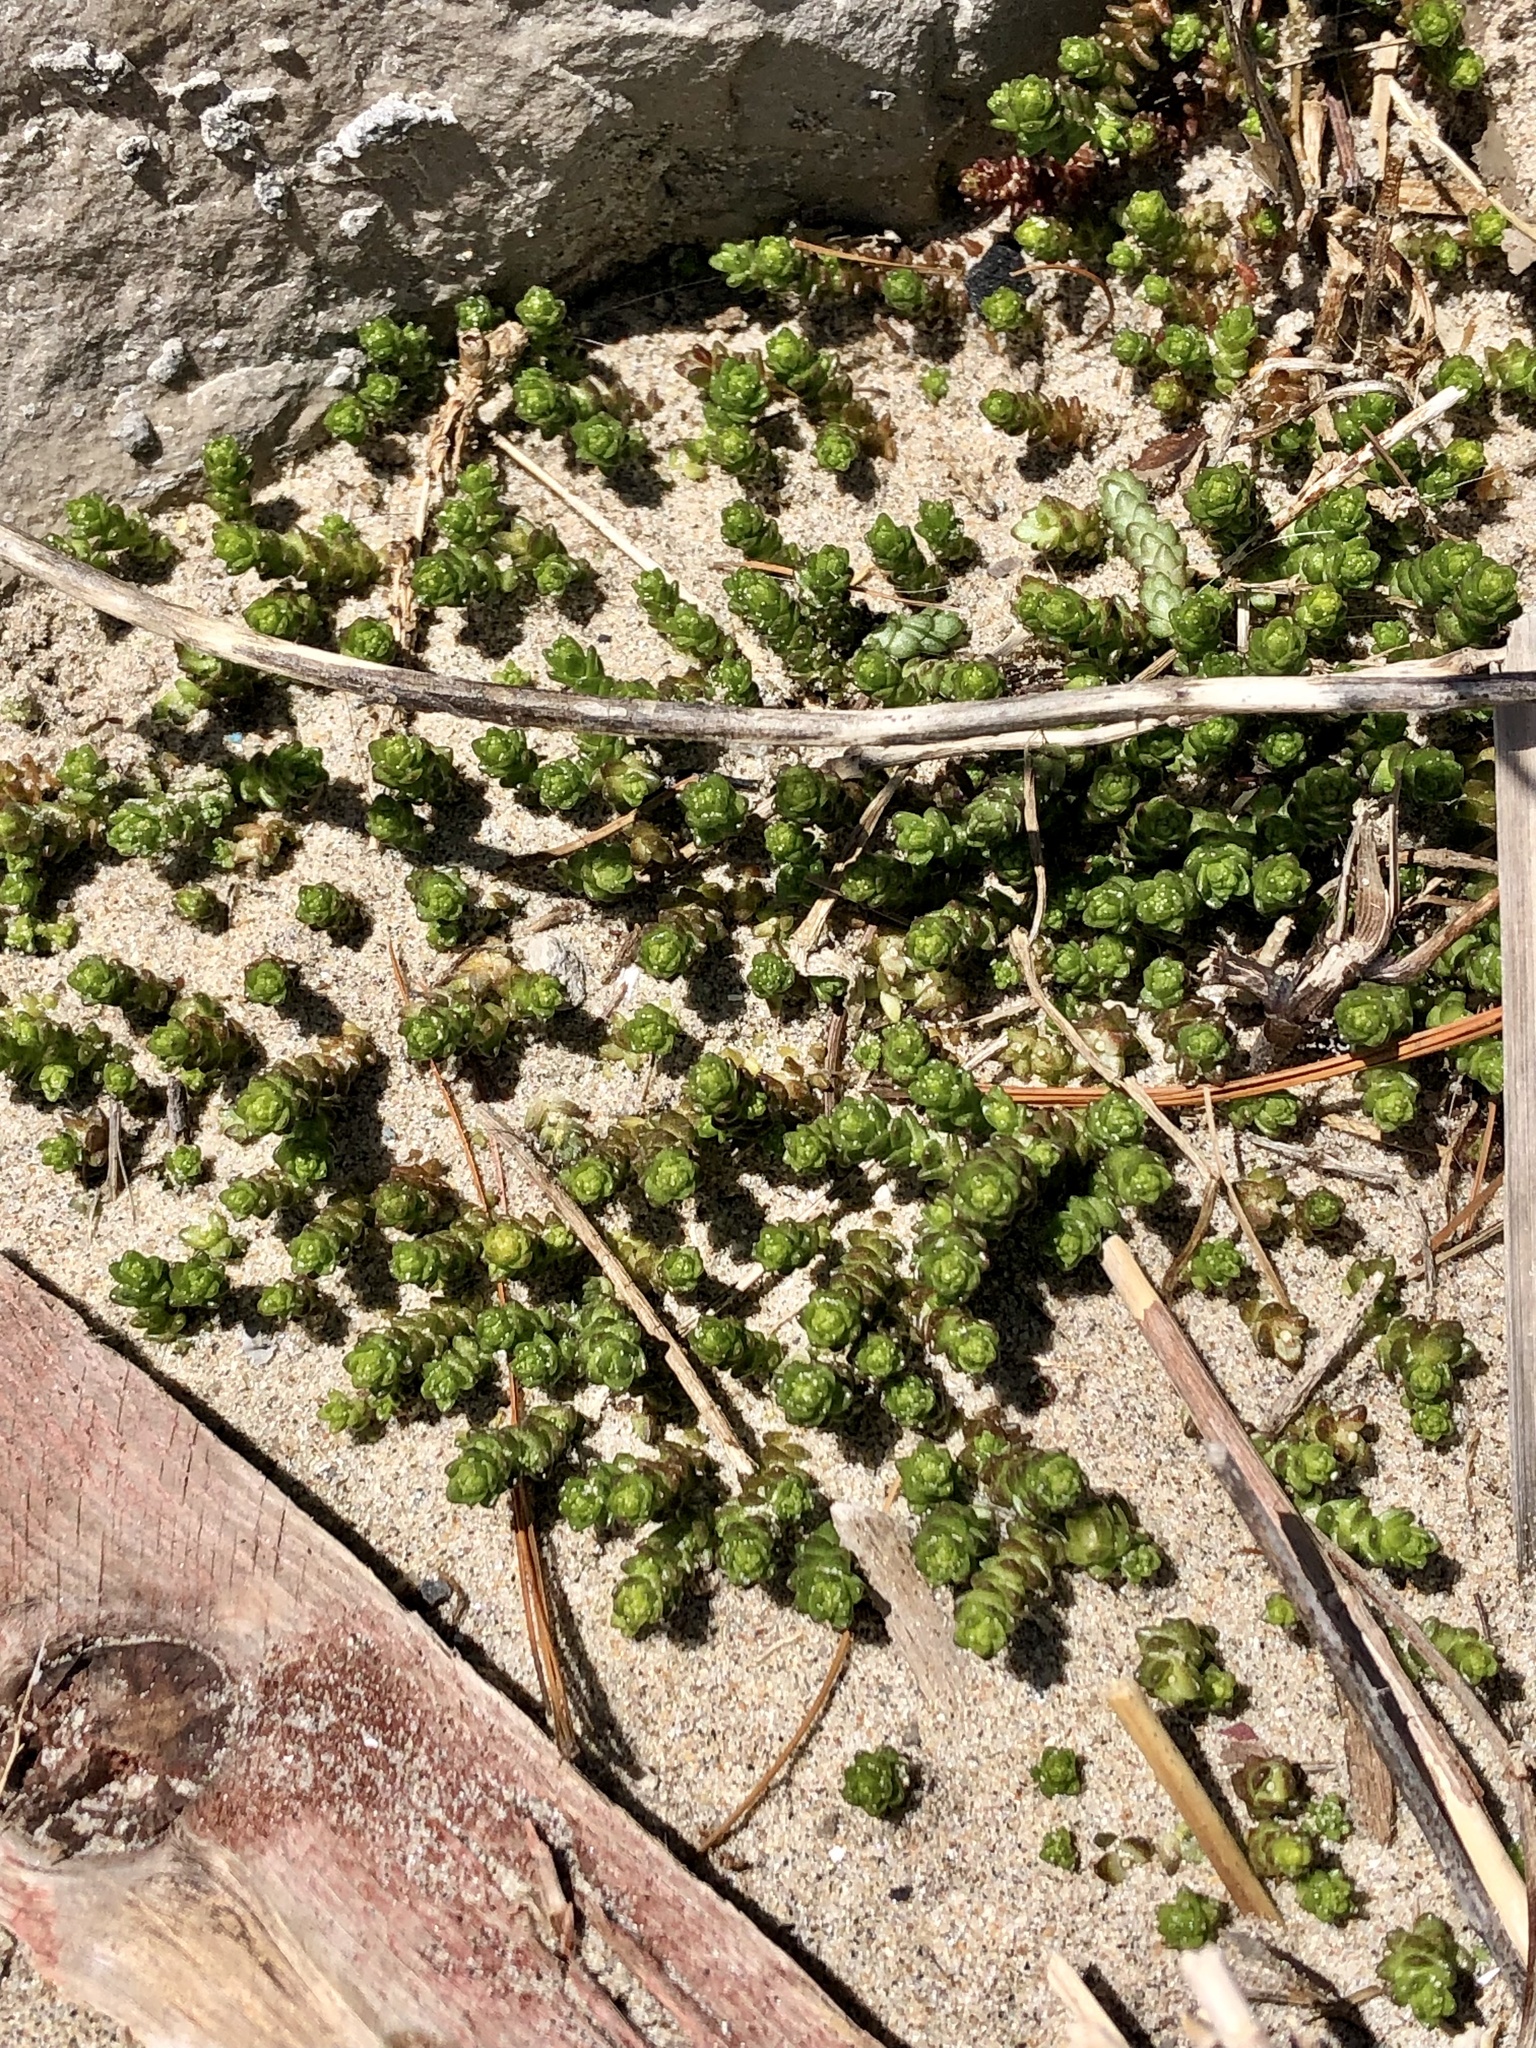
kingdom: Plantae
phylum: Tracheophyta
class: Magnoliopsida
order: Saxifragales
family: Crassulaceae
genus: Sedum
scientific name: Sedum acre
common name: Biting stonecrop
